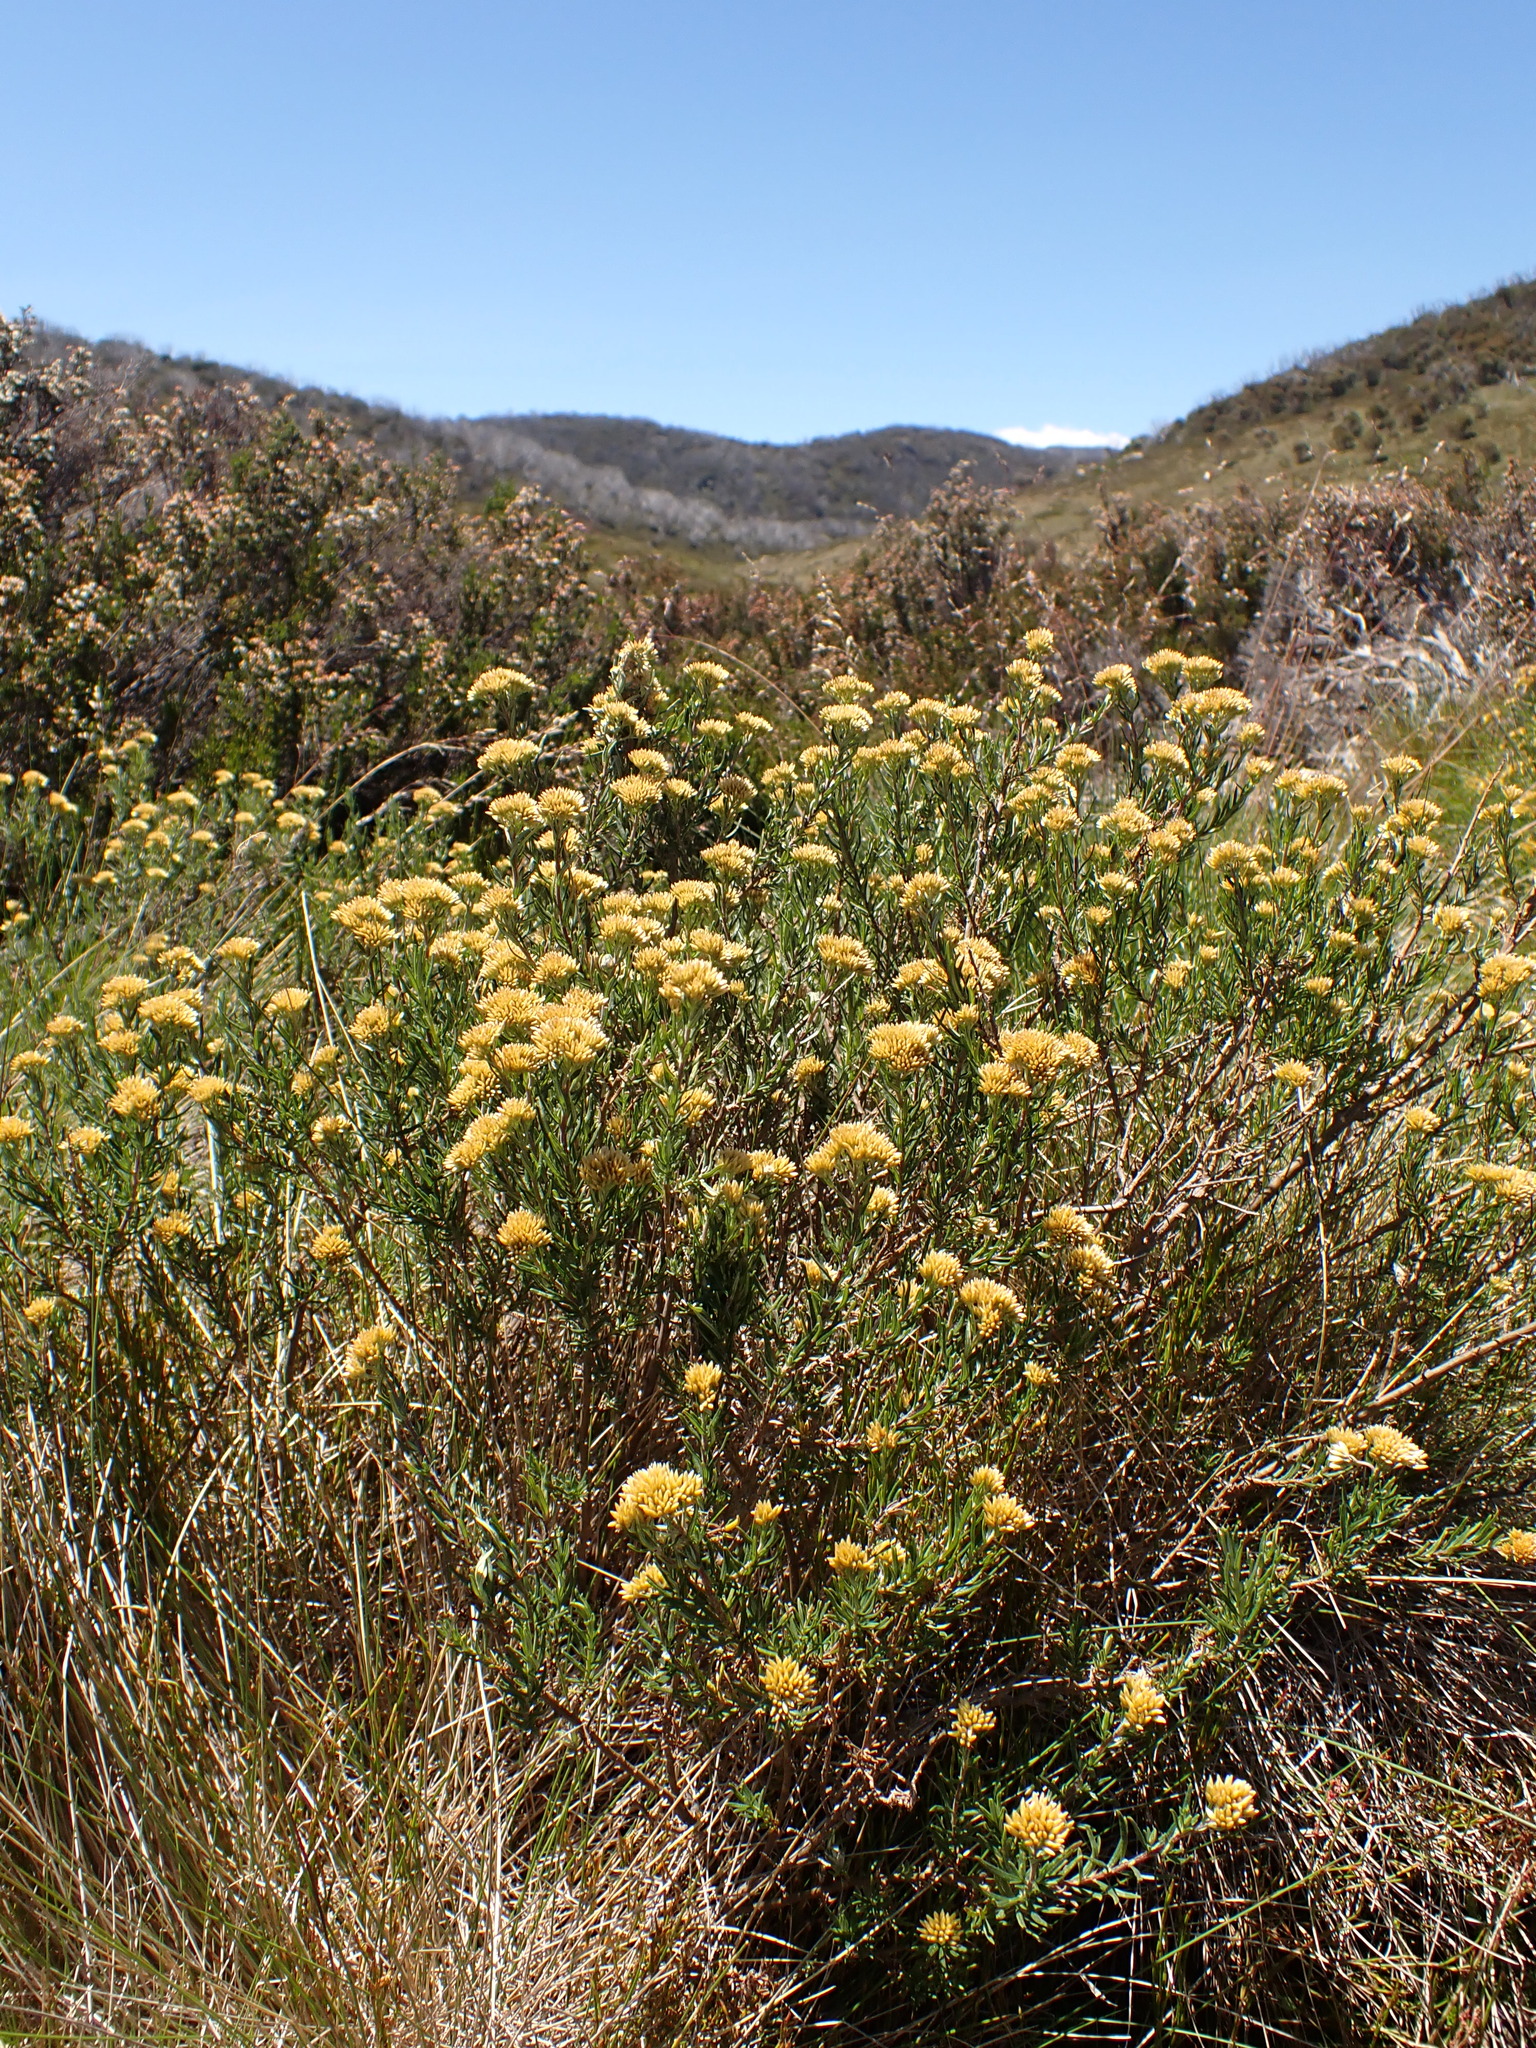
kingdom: Plantae
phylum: Tracheophyta
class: Magnoliopsida
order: Asterales
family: Asteraceae
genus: Cassinia
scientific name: Cassinia monticola
